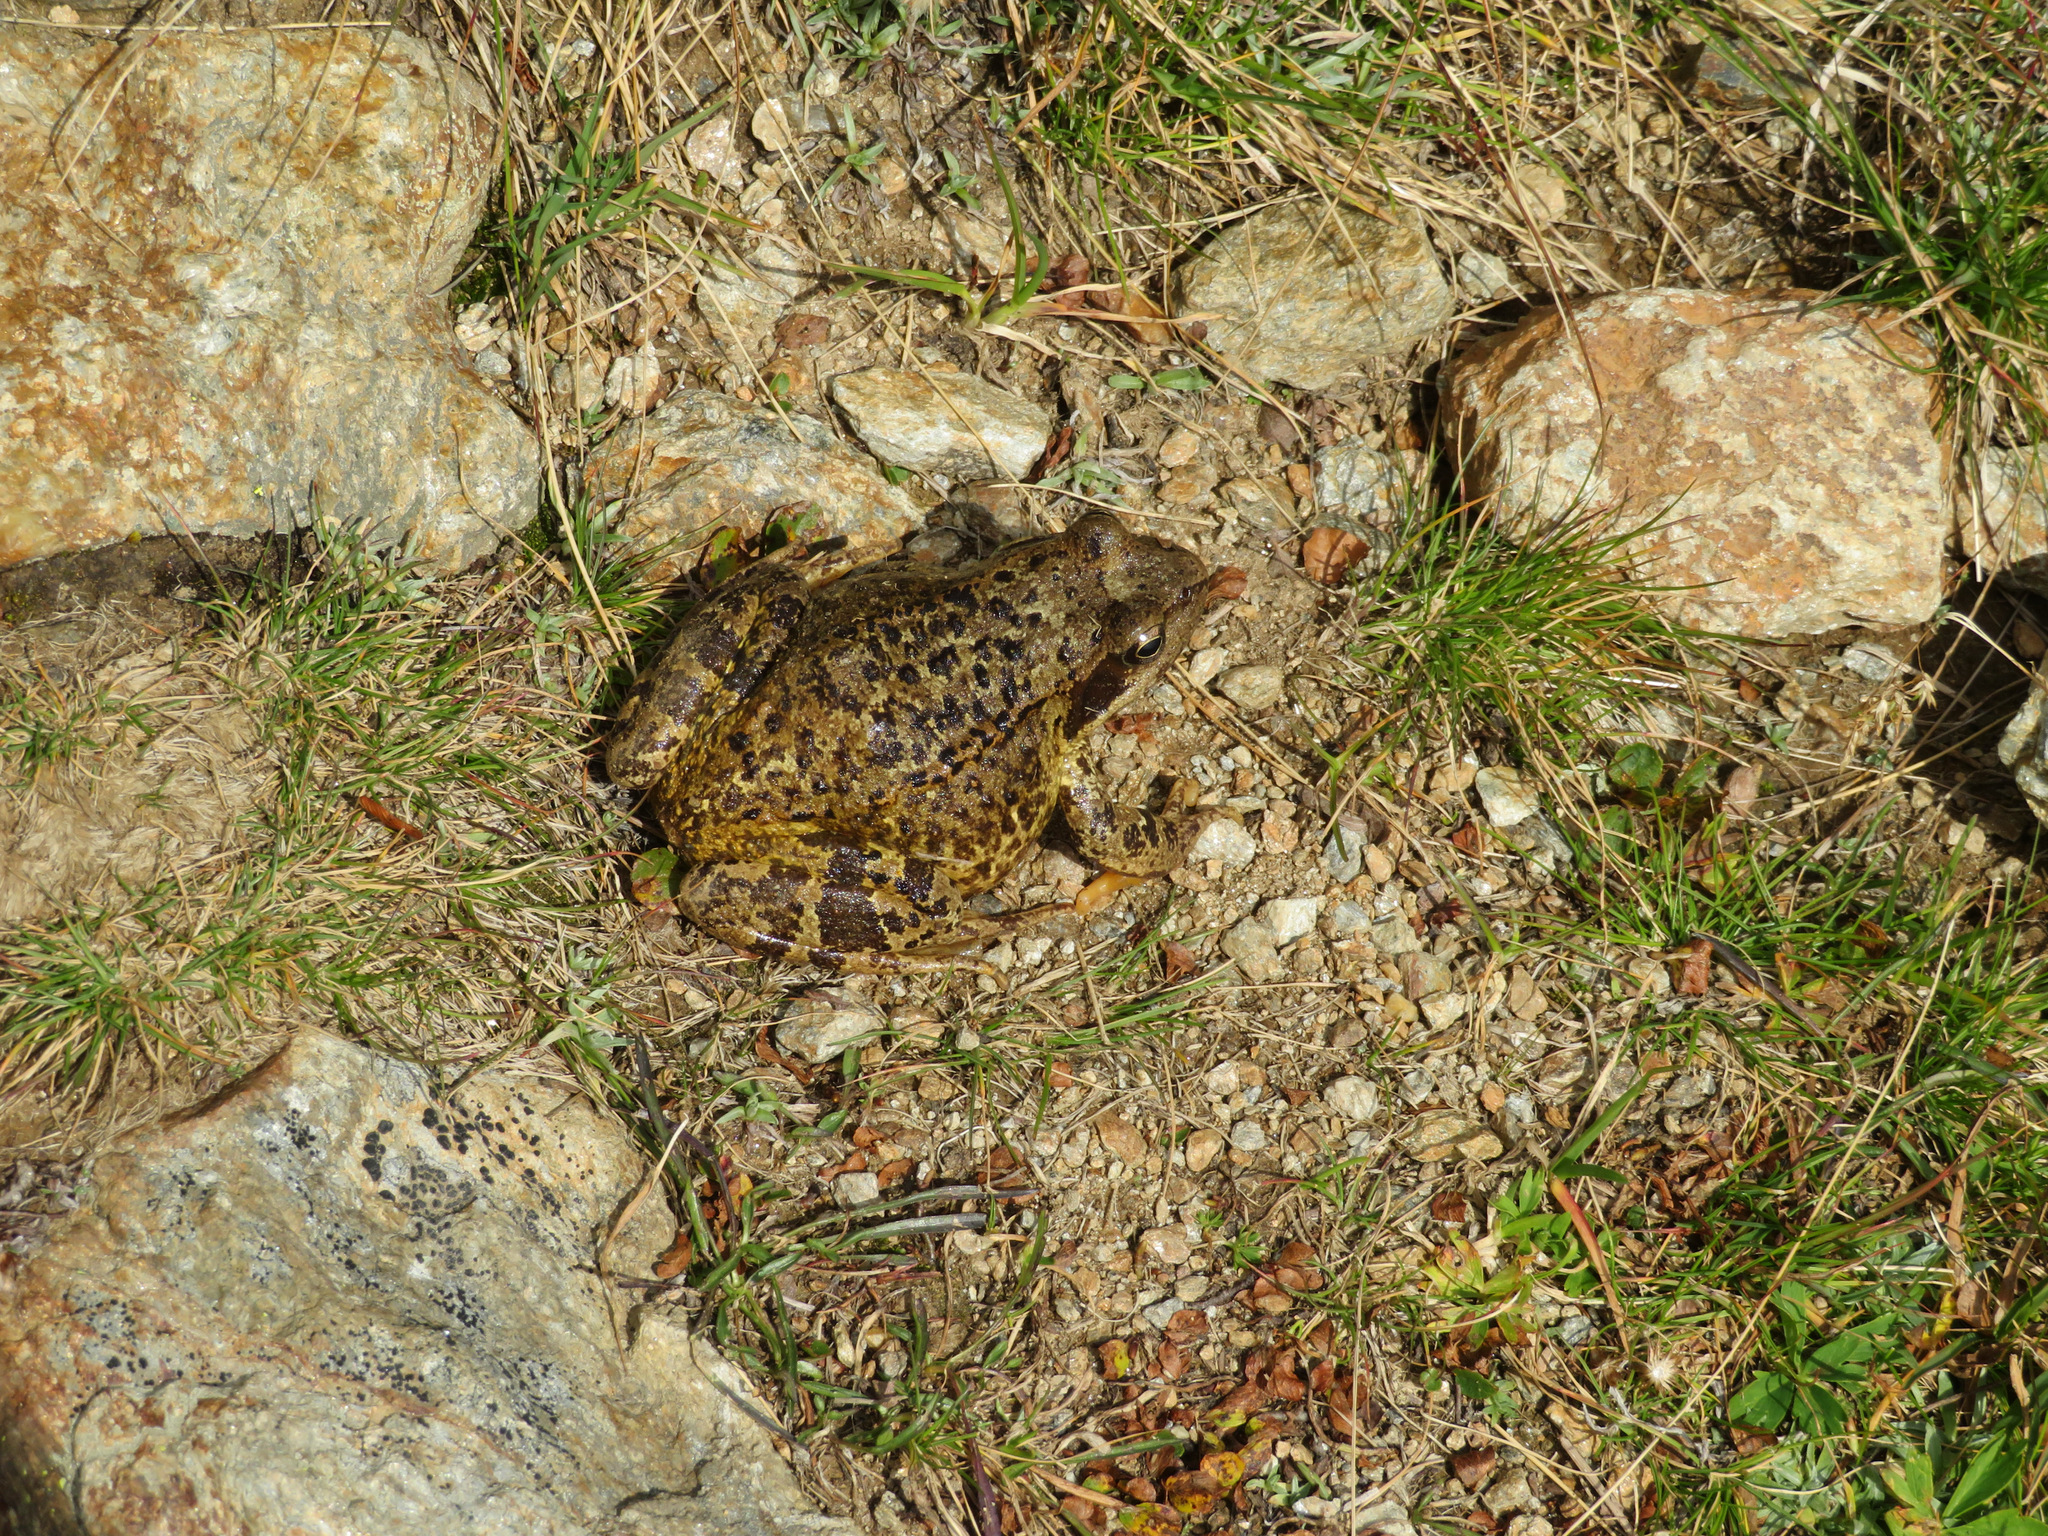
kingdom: Animalia
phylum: Chordata
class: Amphibia
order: Anura
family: Ranidae
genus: Rana
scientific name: Rana temporaria
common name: Common frog
